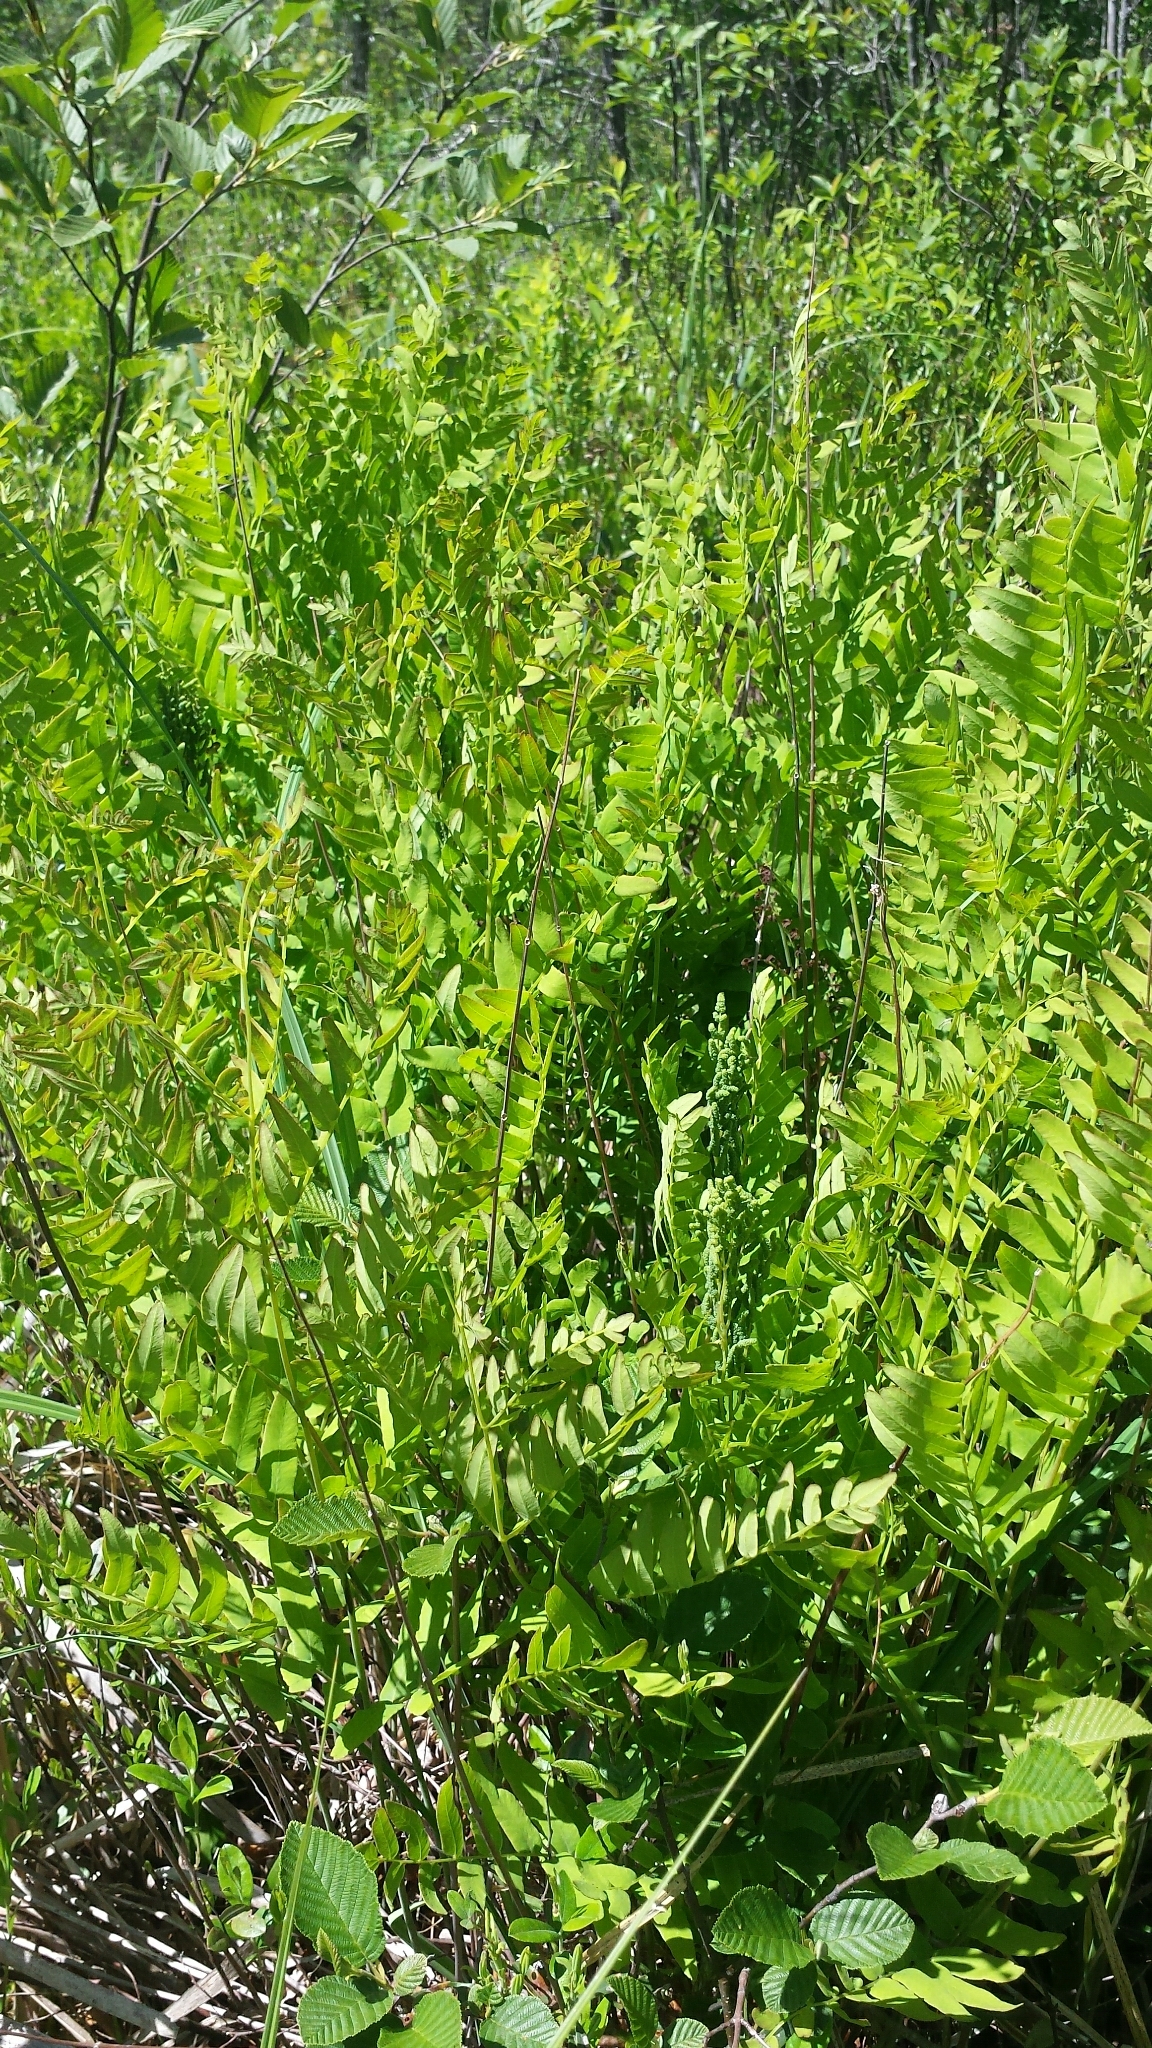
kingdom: Plantae
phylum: Tracheophyta
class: Polypodiopsida
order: Osmundales
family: Osmundaceae
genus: Osmunda
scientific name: Osmunda spectabilis
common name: American royal fern
